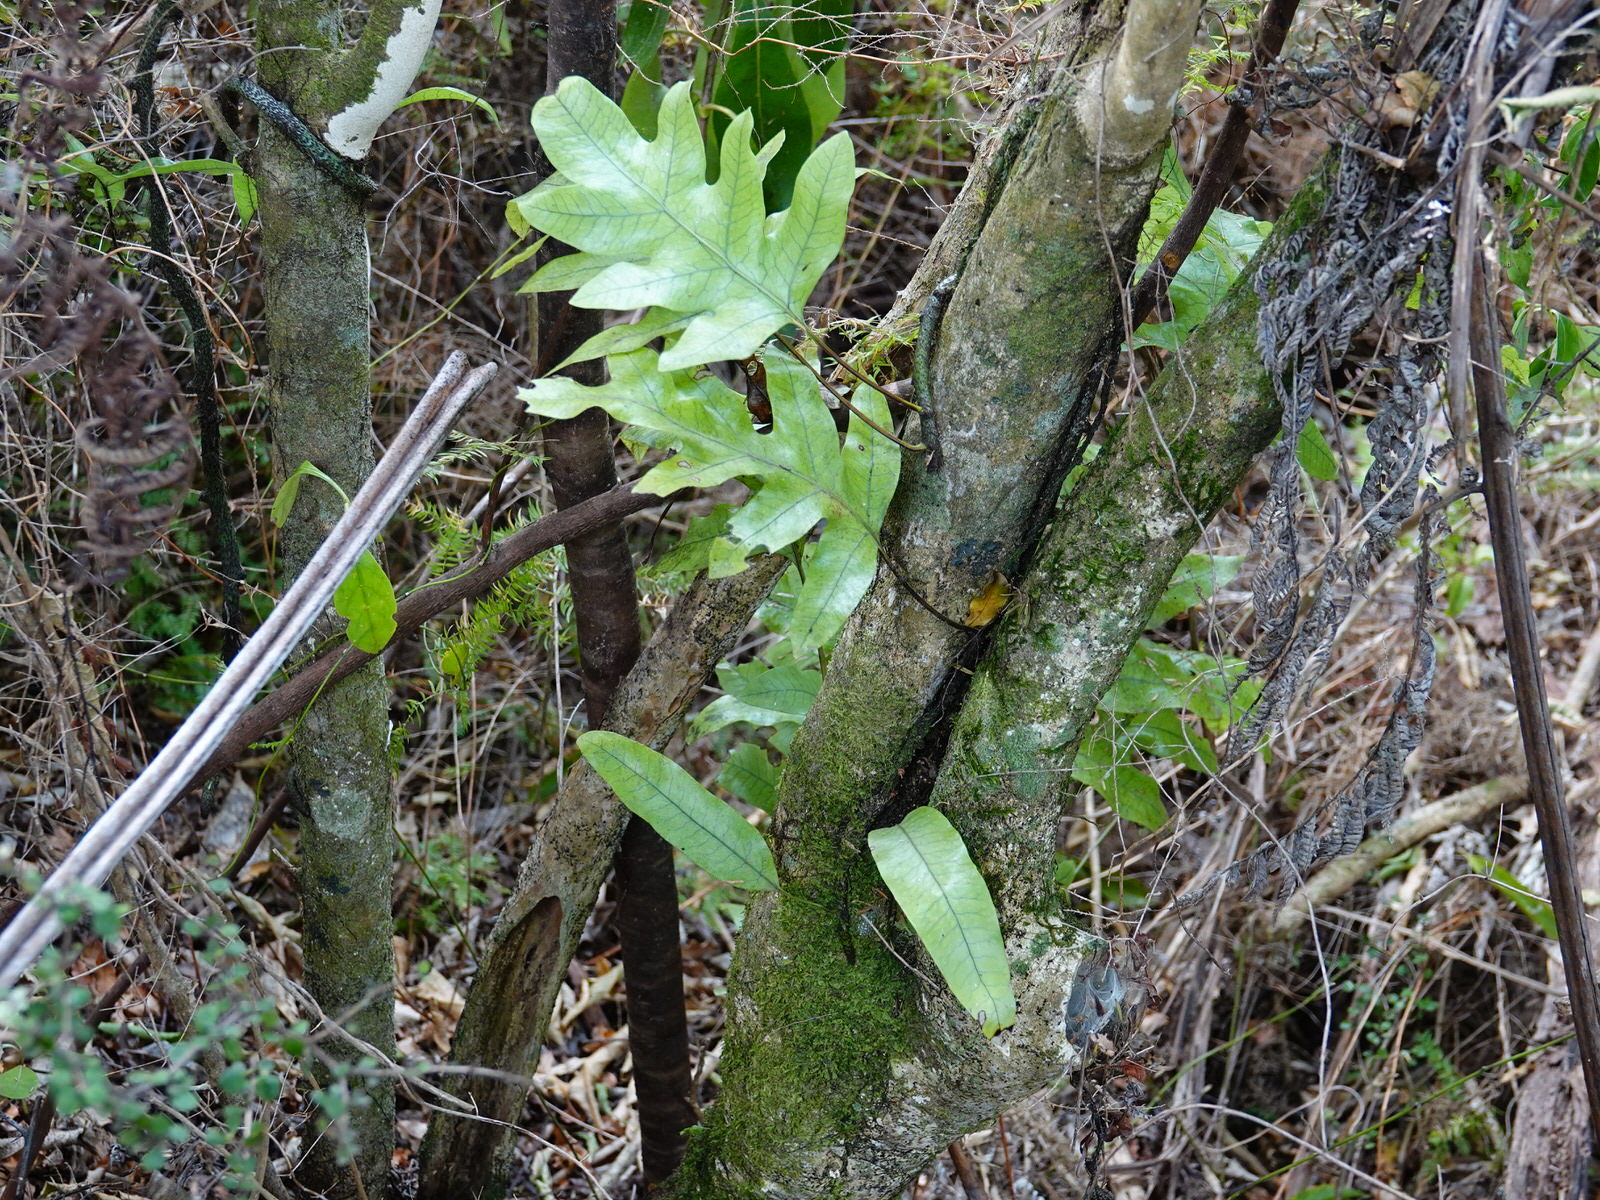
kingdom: Plantae
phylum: Tracheophyta
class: Polypodiopsida
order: Polypodiales
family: Polypodiaceae
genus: Lecanopteris
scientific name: Lecanopteris pustulata
